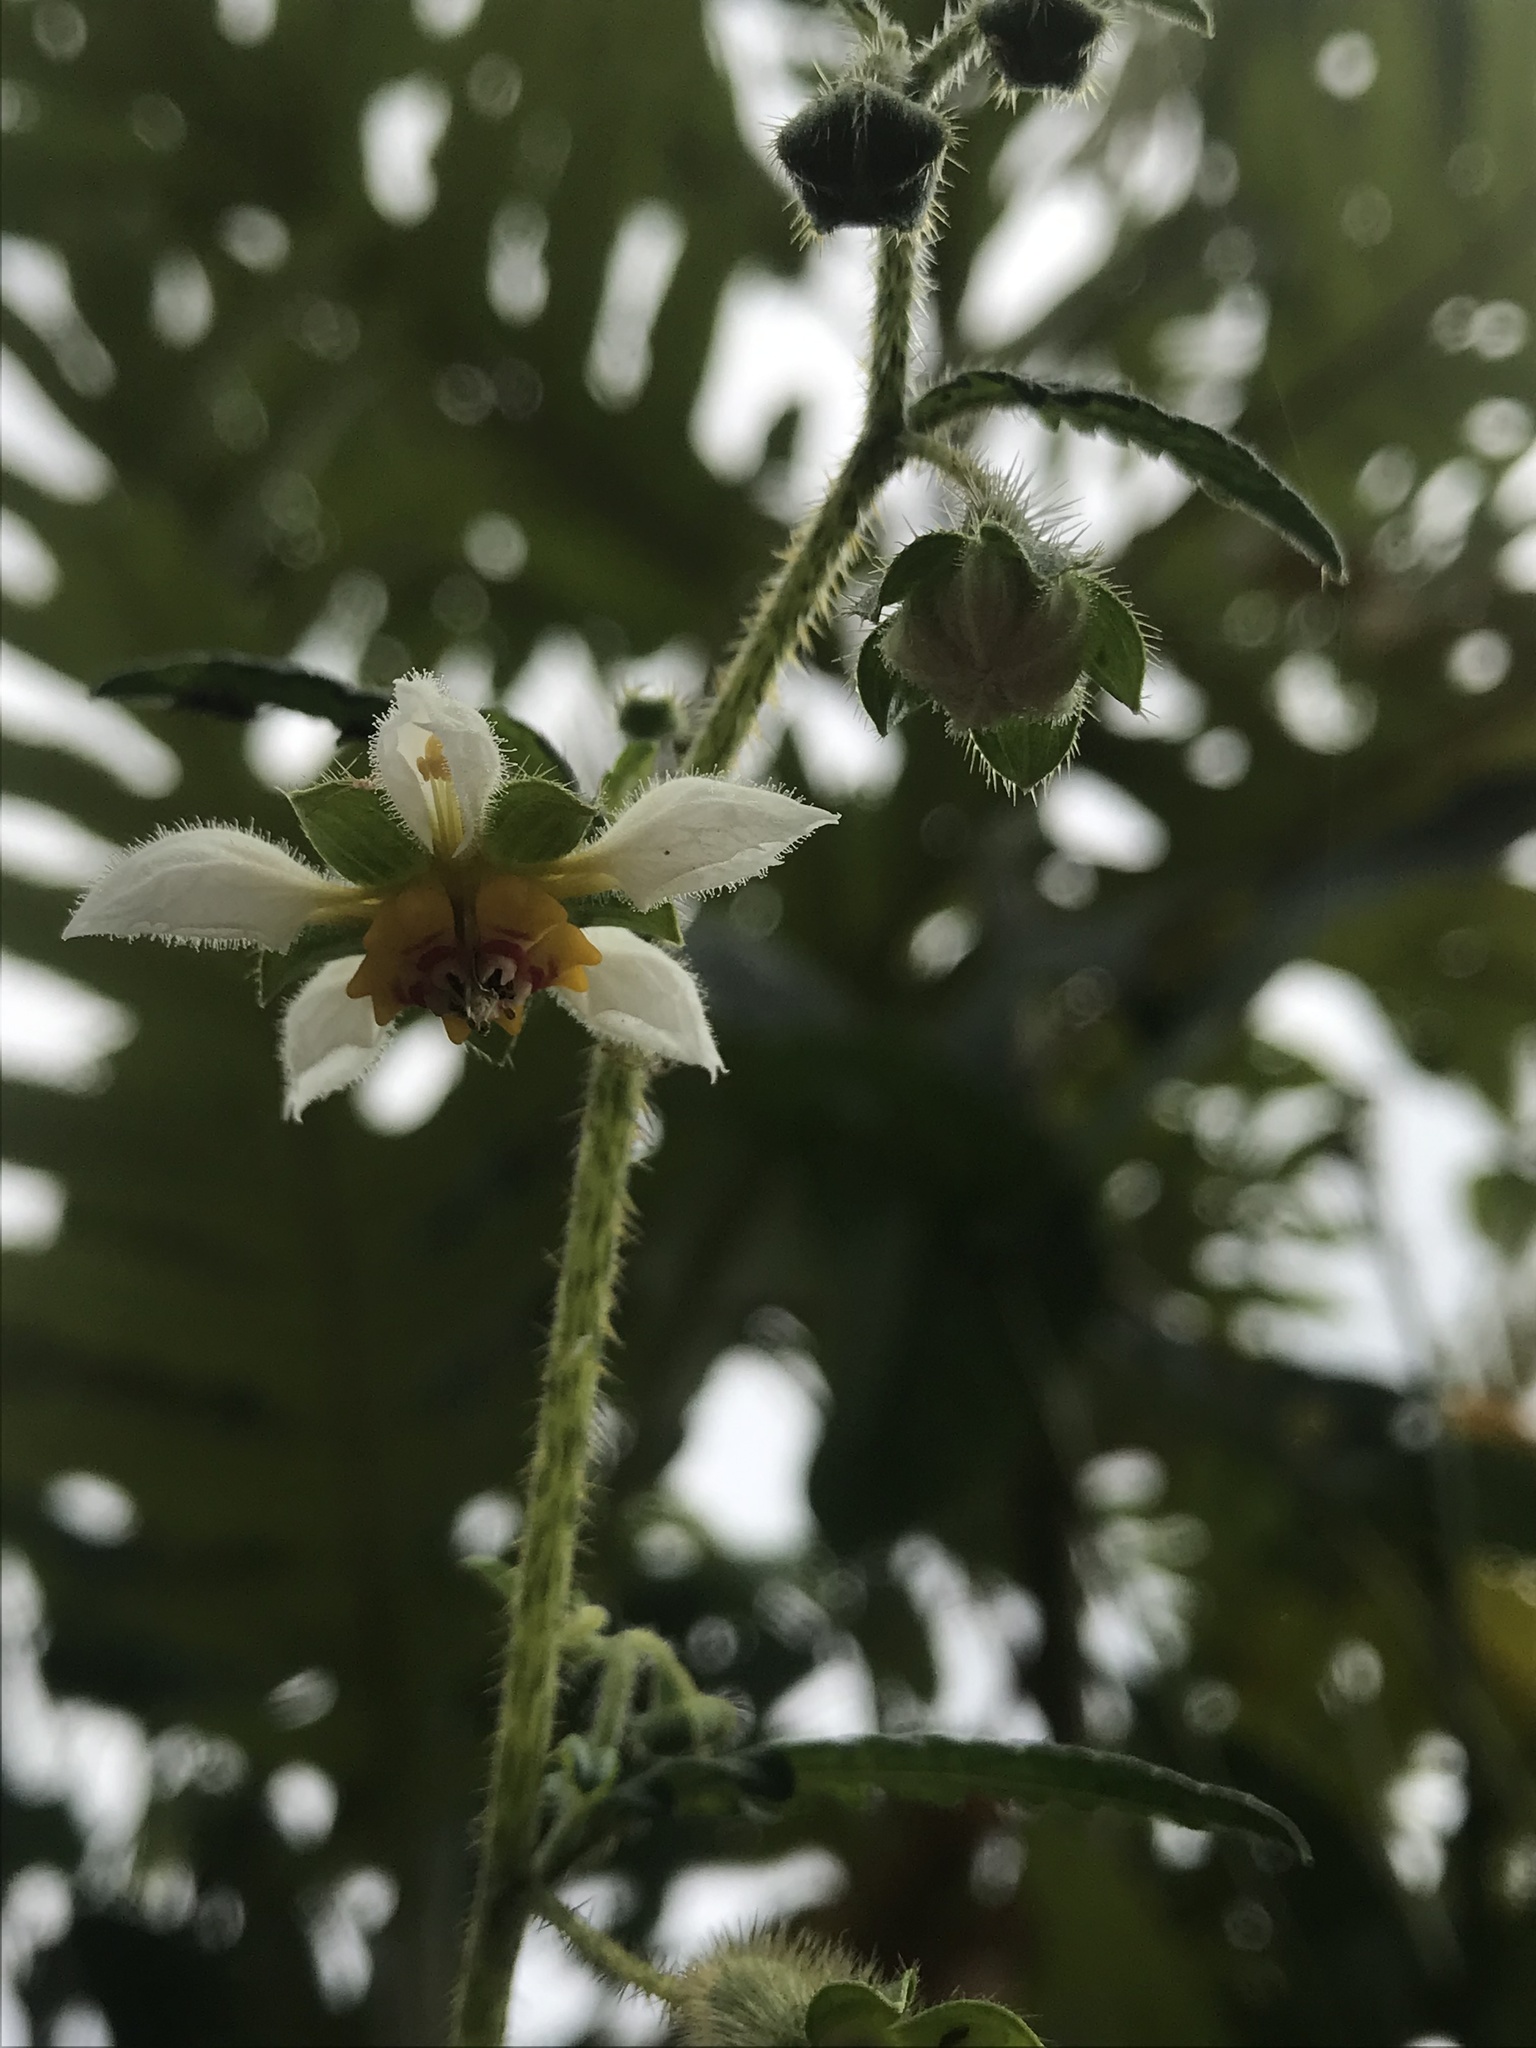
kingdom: Plantae
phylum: Tracheophyta
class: Magnoliopsida
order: Cornales
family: Loasaceae
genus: Nasa
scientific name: Nasa triphylla
